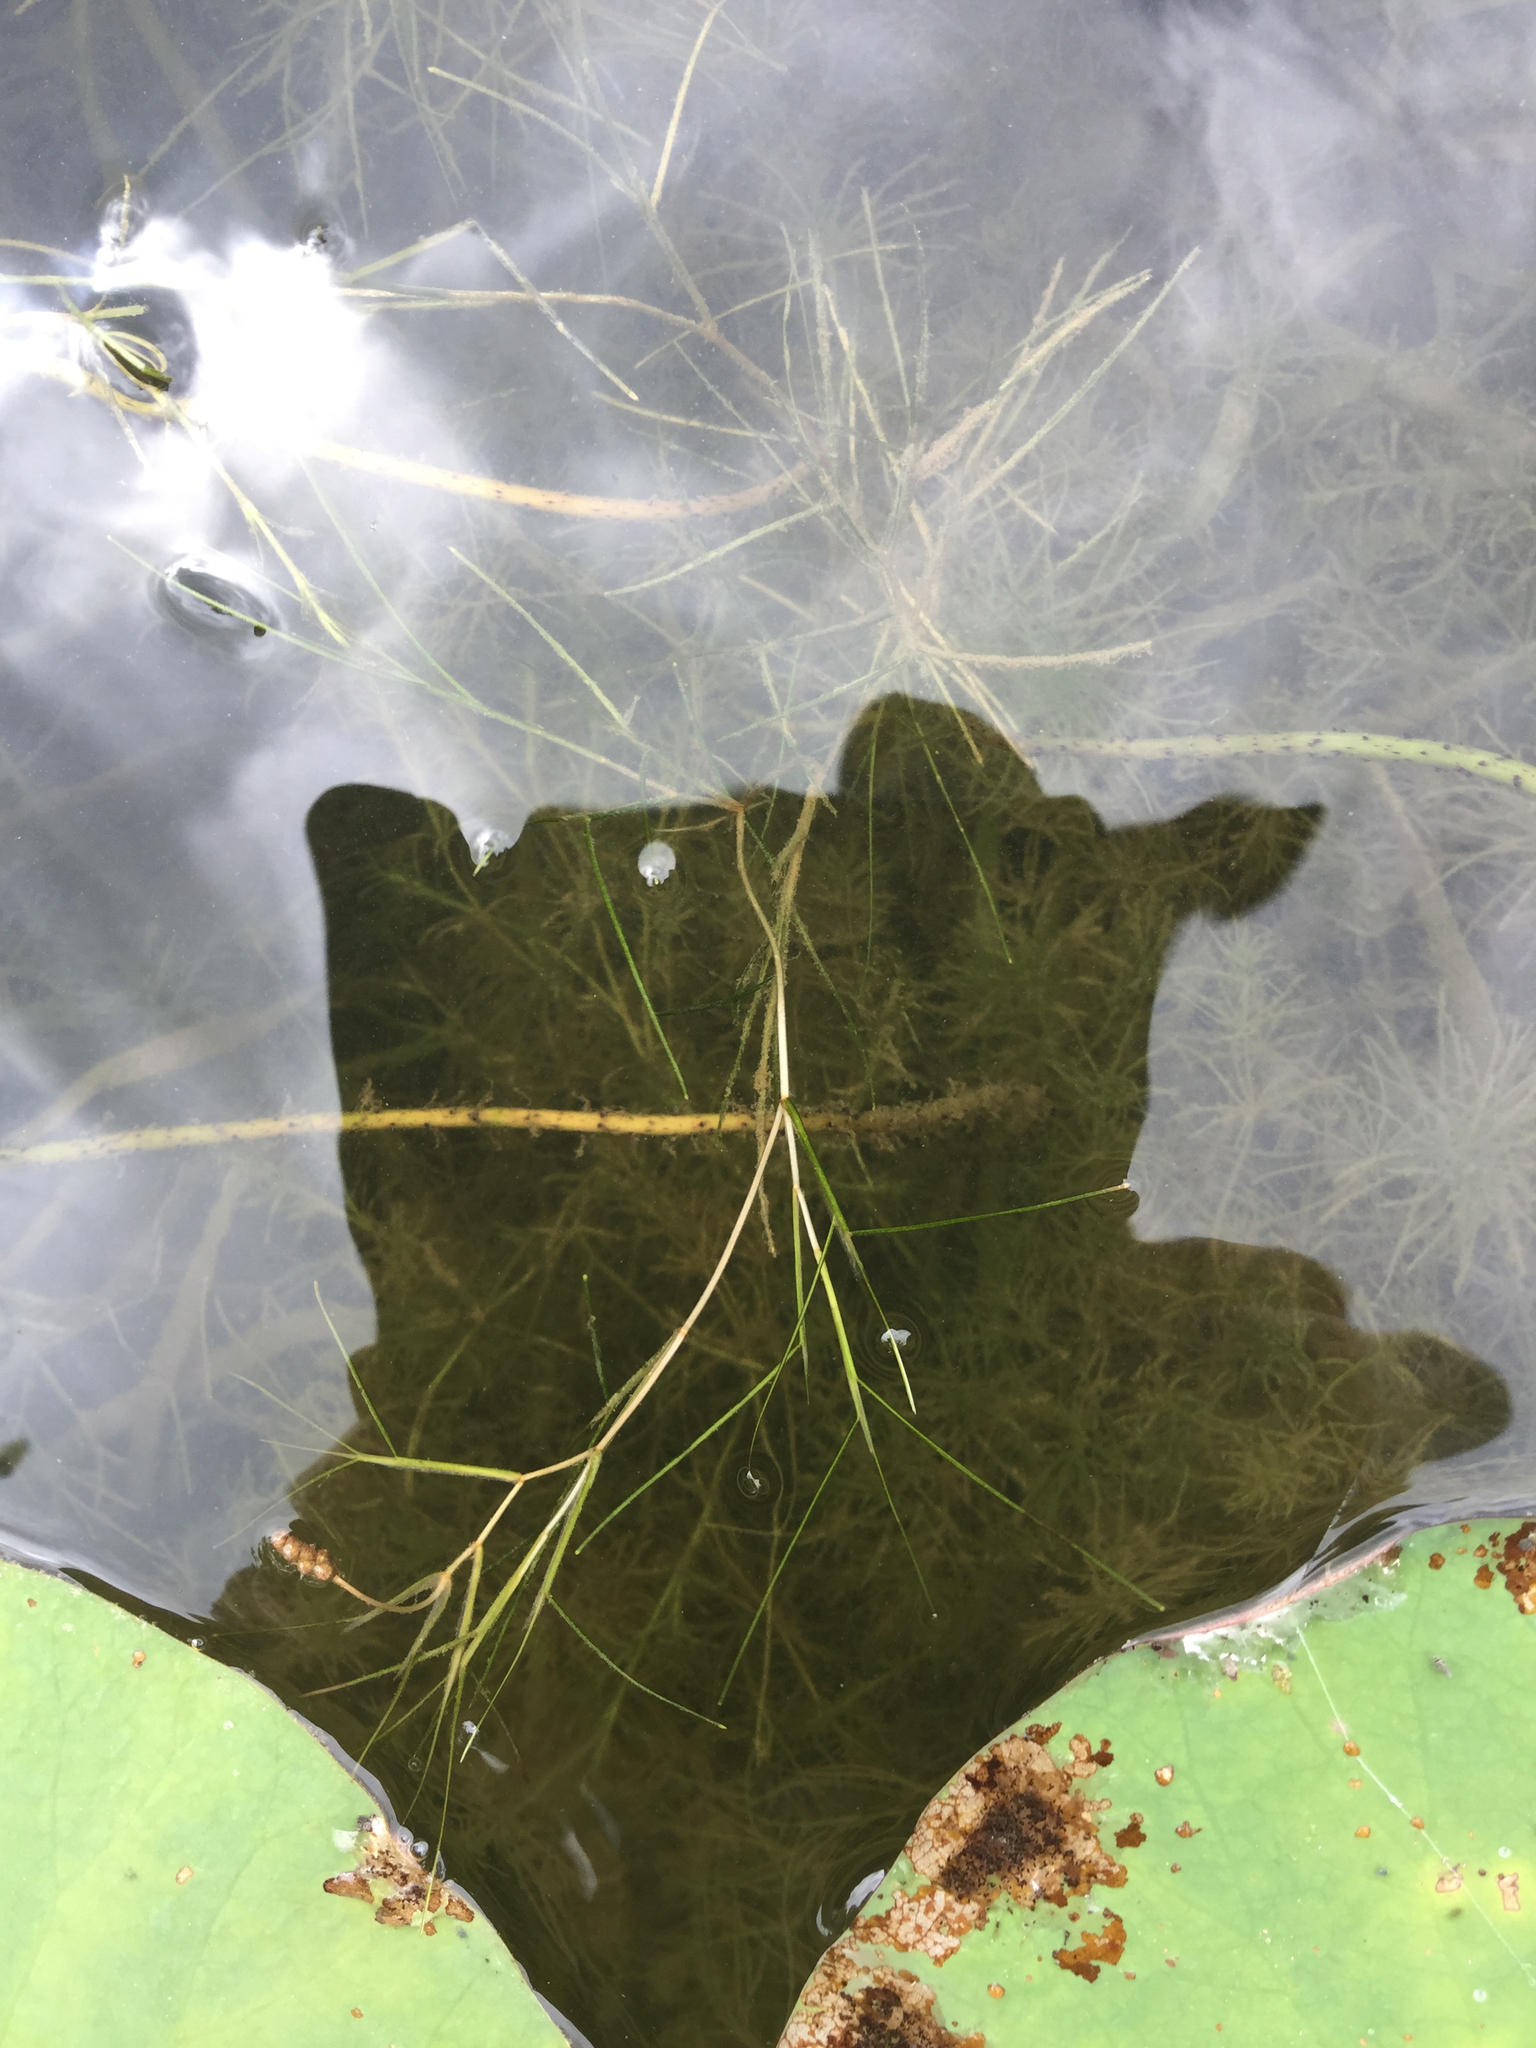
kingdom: Plantae
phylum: Tracheophyta
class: Liliopsida
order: Alismatales
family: Potamogetonaceae
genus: Stuckenia
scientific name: Stuckenia pectinata
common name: Sago pondweed
